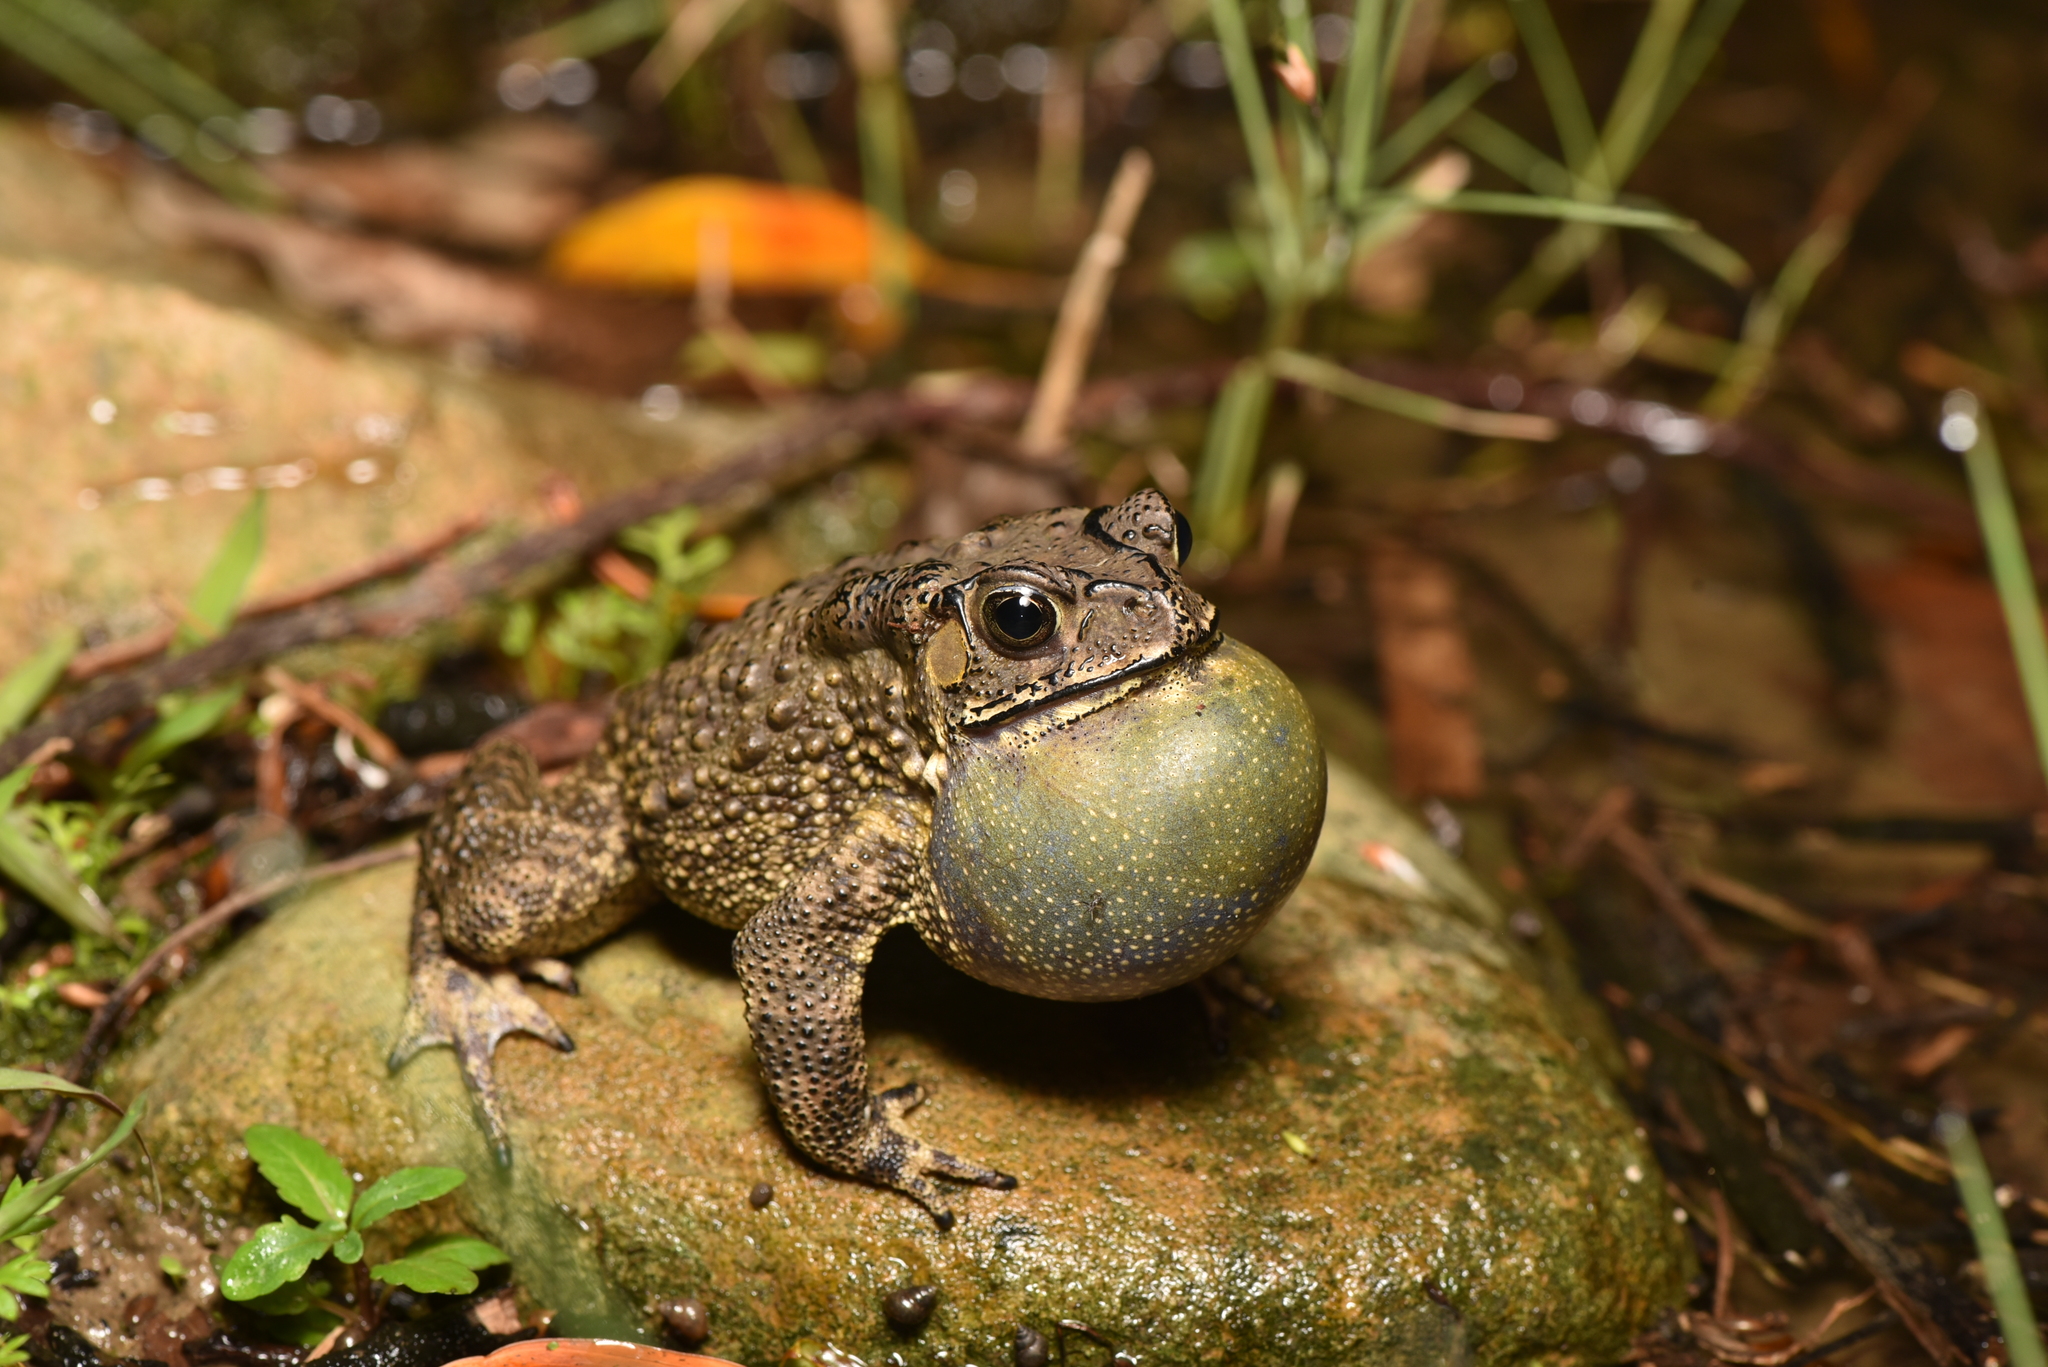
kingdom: Animalia
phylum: Chordata
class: Amphibia
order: Anura
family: Bufonidae
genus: Duttaphrynus
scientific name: Duttaphrynus melanostictus
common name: Common sunda toad
